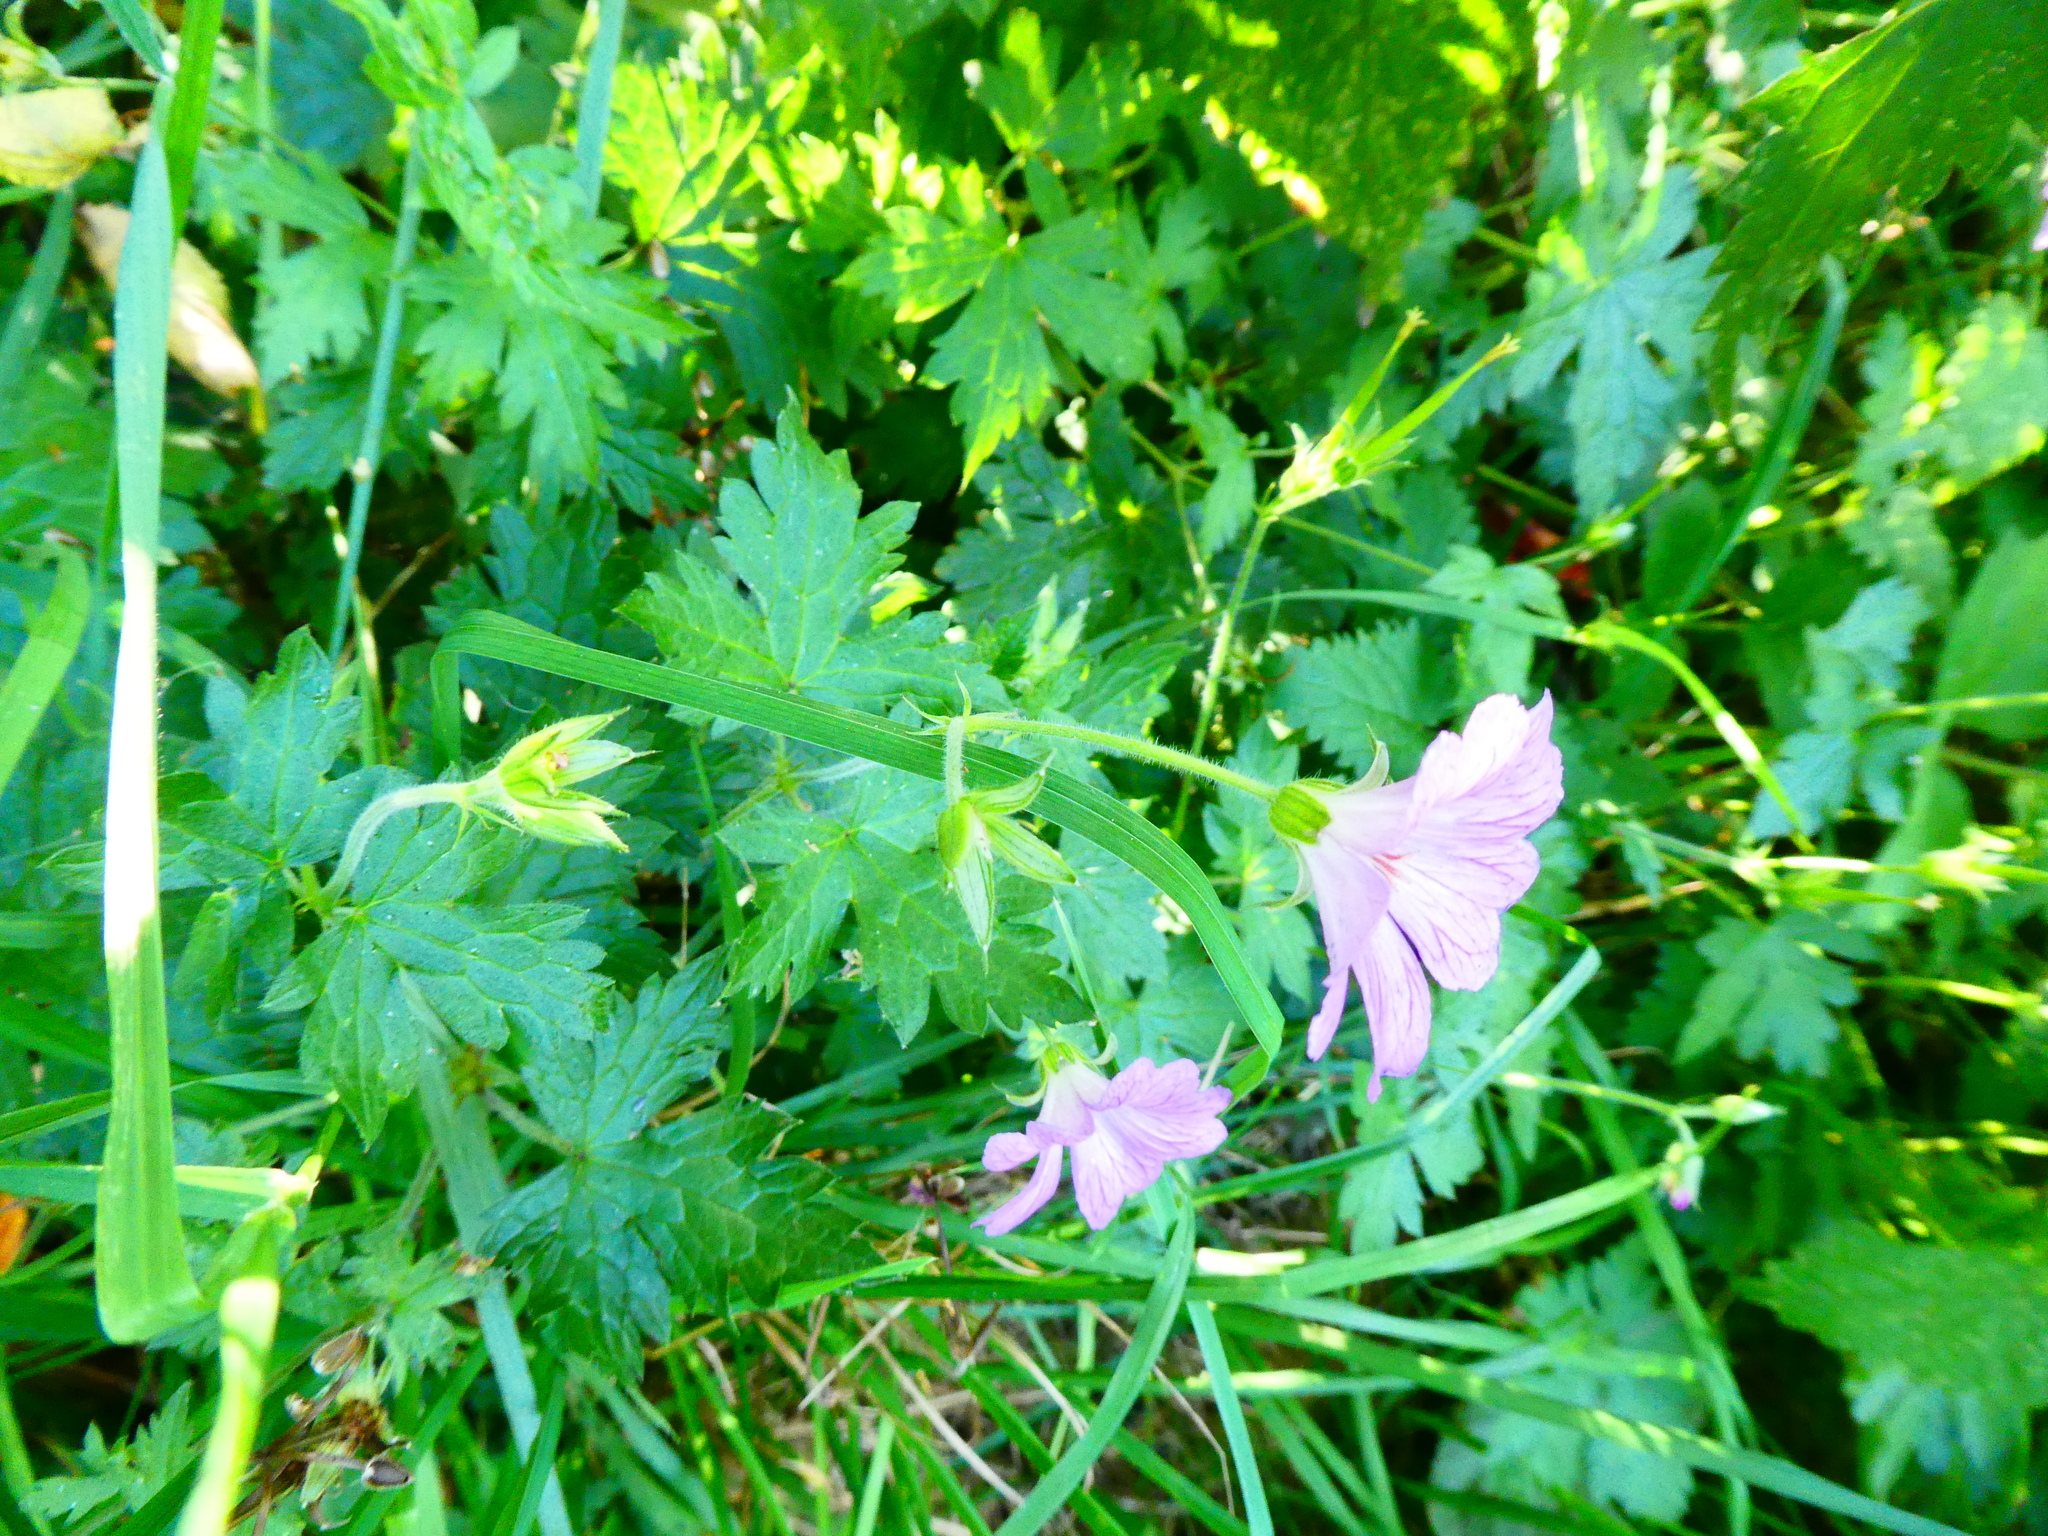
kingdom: Plantae
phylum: Tracheophyta
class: Magnoliopsida
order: Geraniales
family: Geraniaceae
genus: Geranium
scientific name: Geranium oxonianum
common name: Druce's crane's-bill
